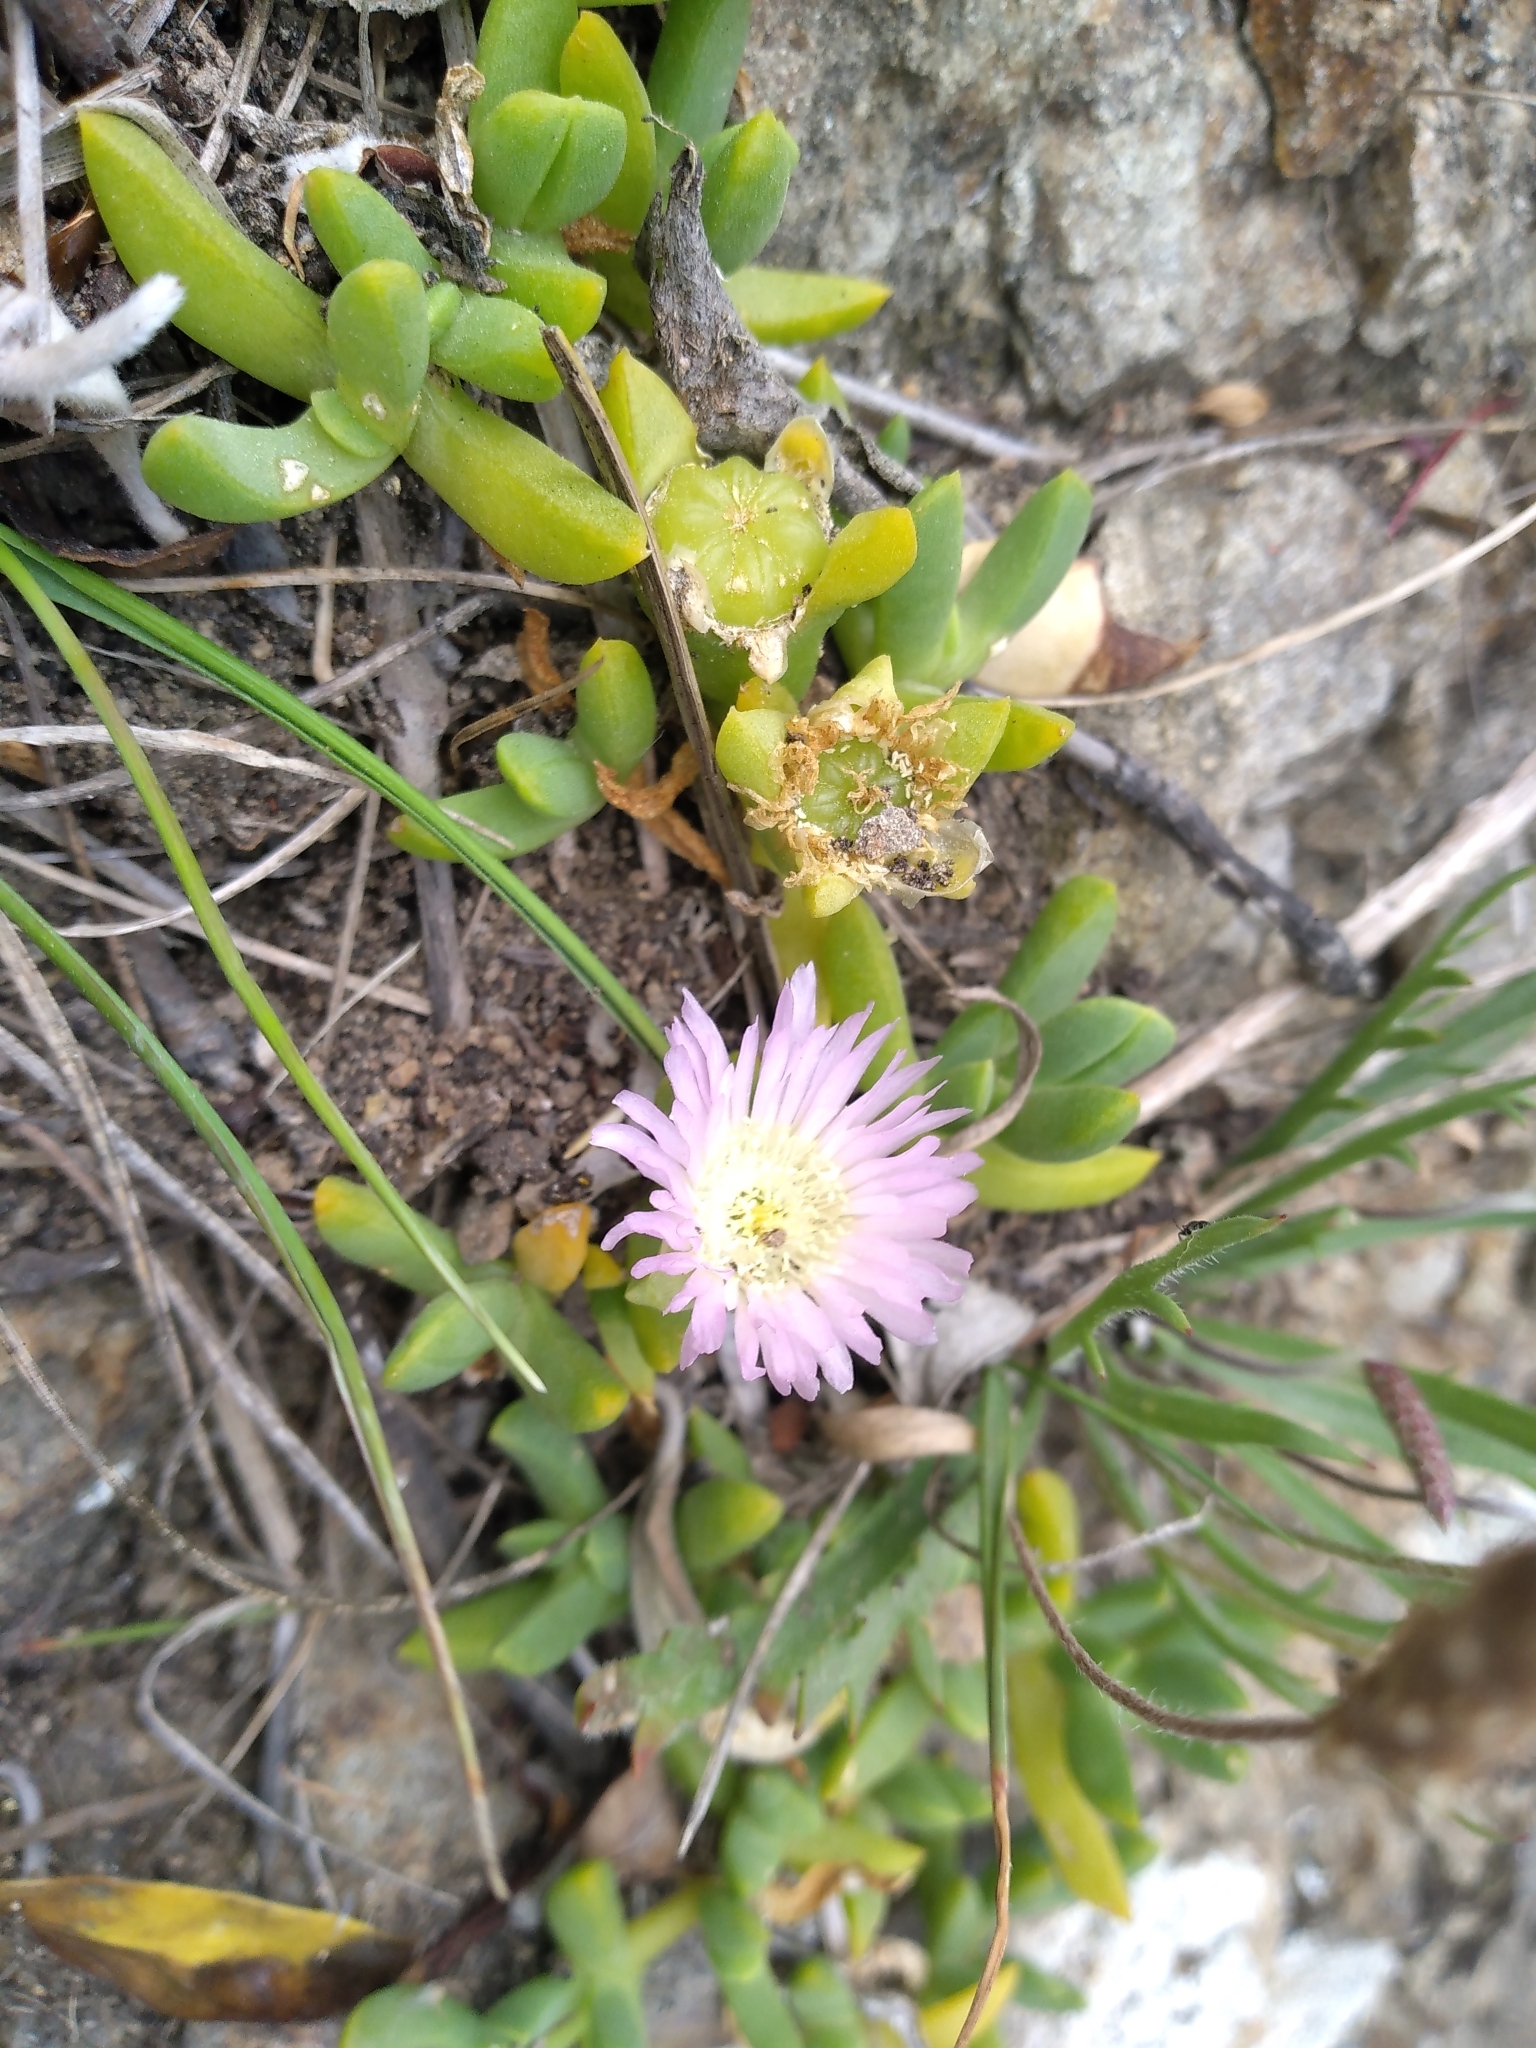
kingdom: Plantae
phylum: Tracheophyta
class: Magnoliopsida
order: Caryophyllales
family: Aizoaceae
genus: Disphyma
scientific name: Disphyma australe
